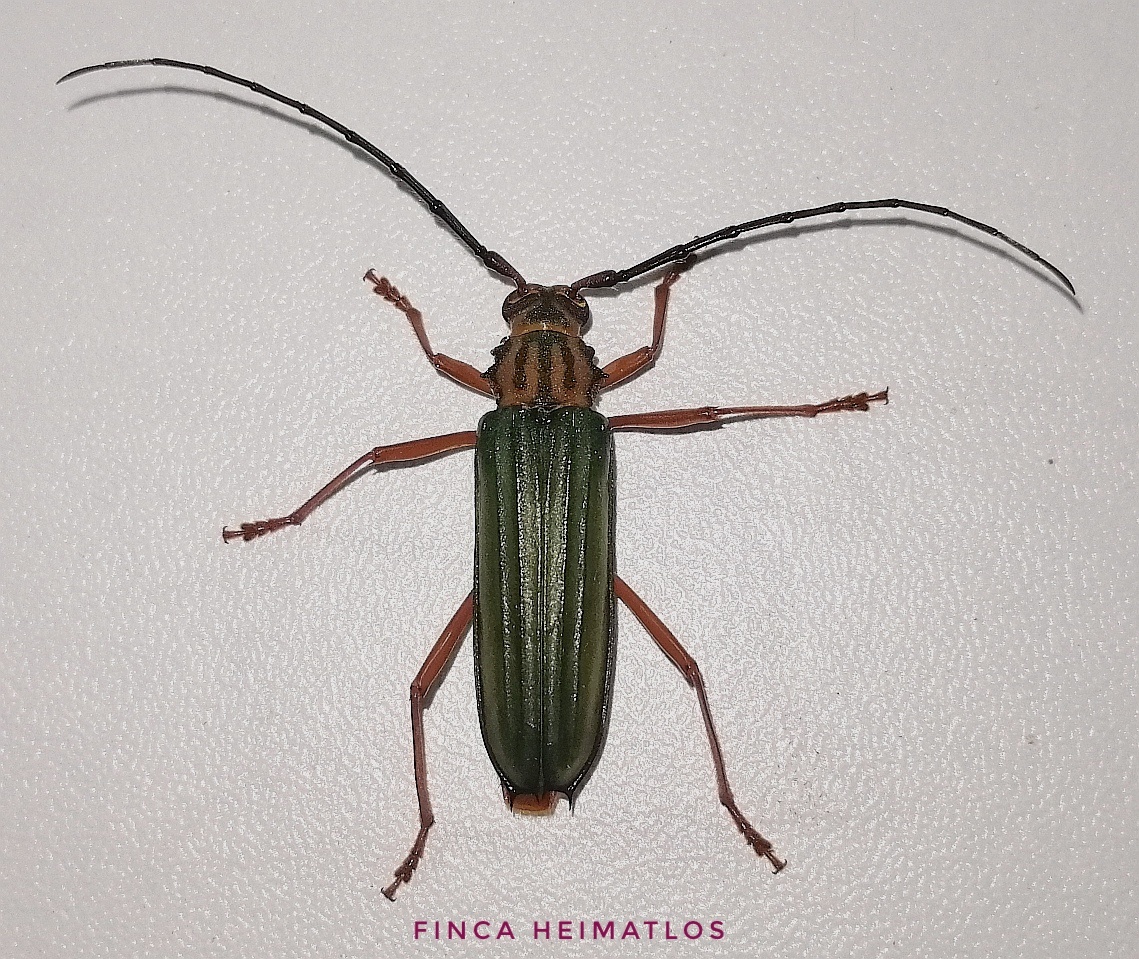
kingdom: Animalia
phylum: Arthropoda
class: Insecta
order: Coleoptera
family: Cerambycidae
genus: Chlorida
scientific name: Chlorida festiva
